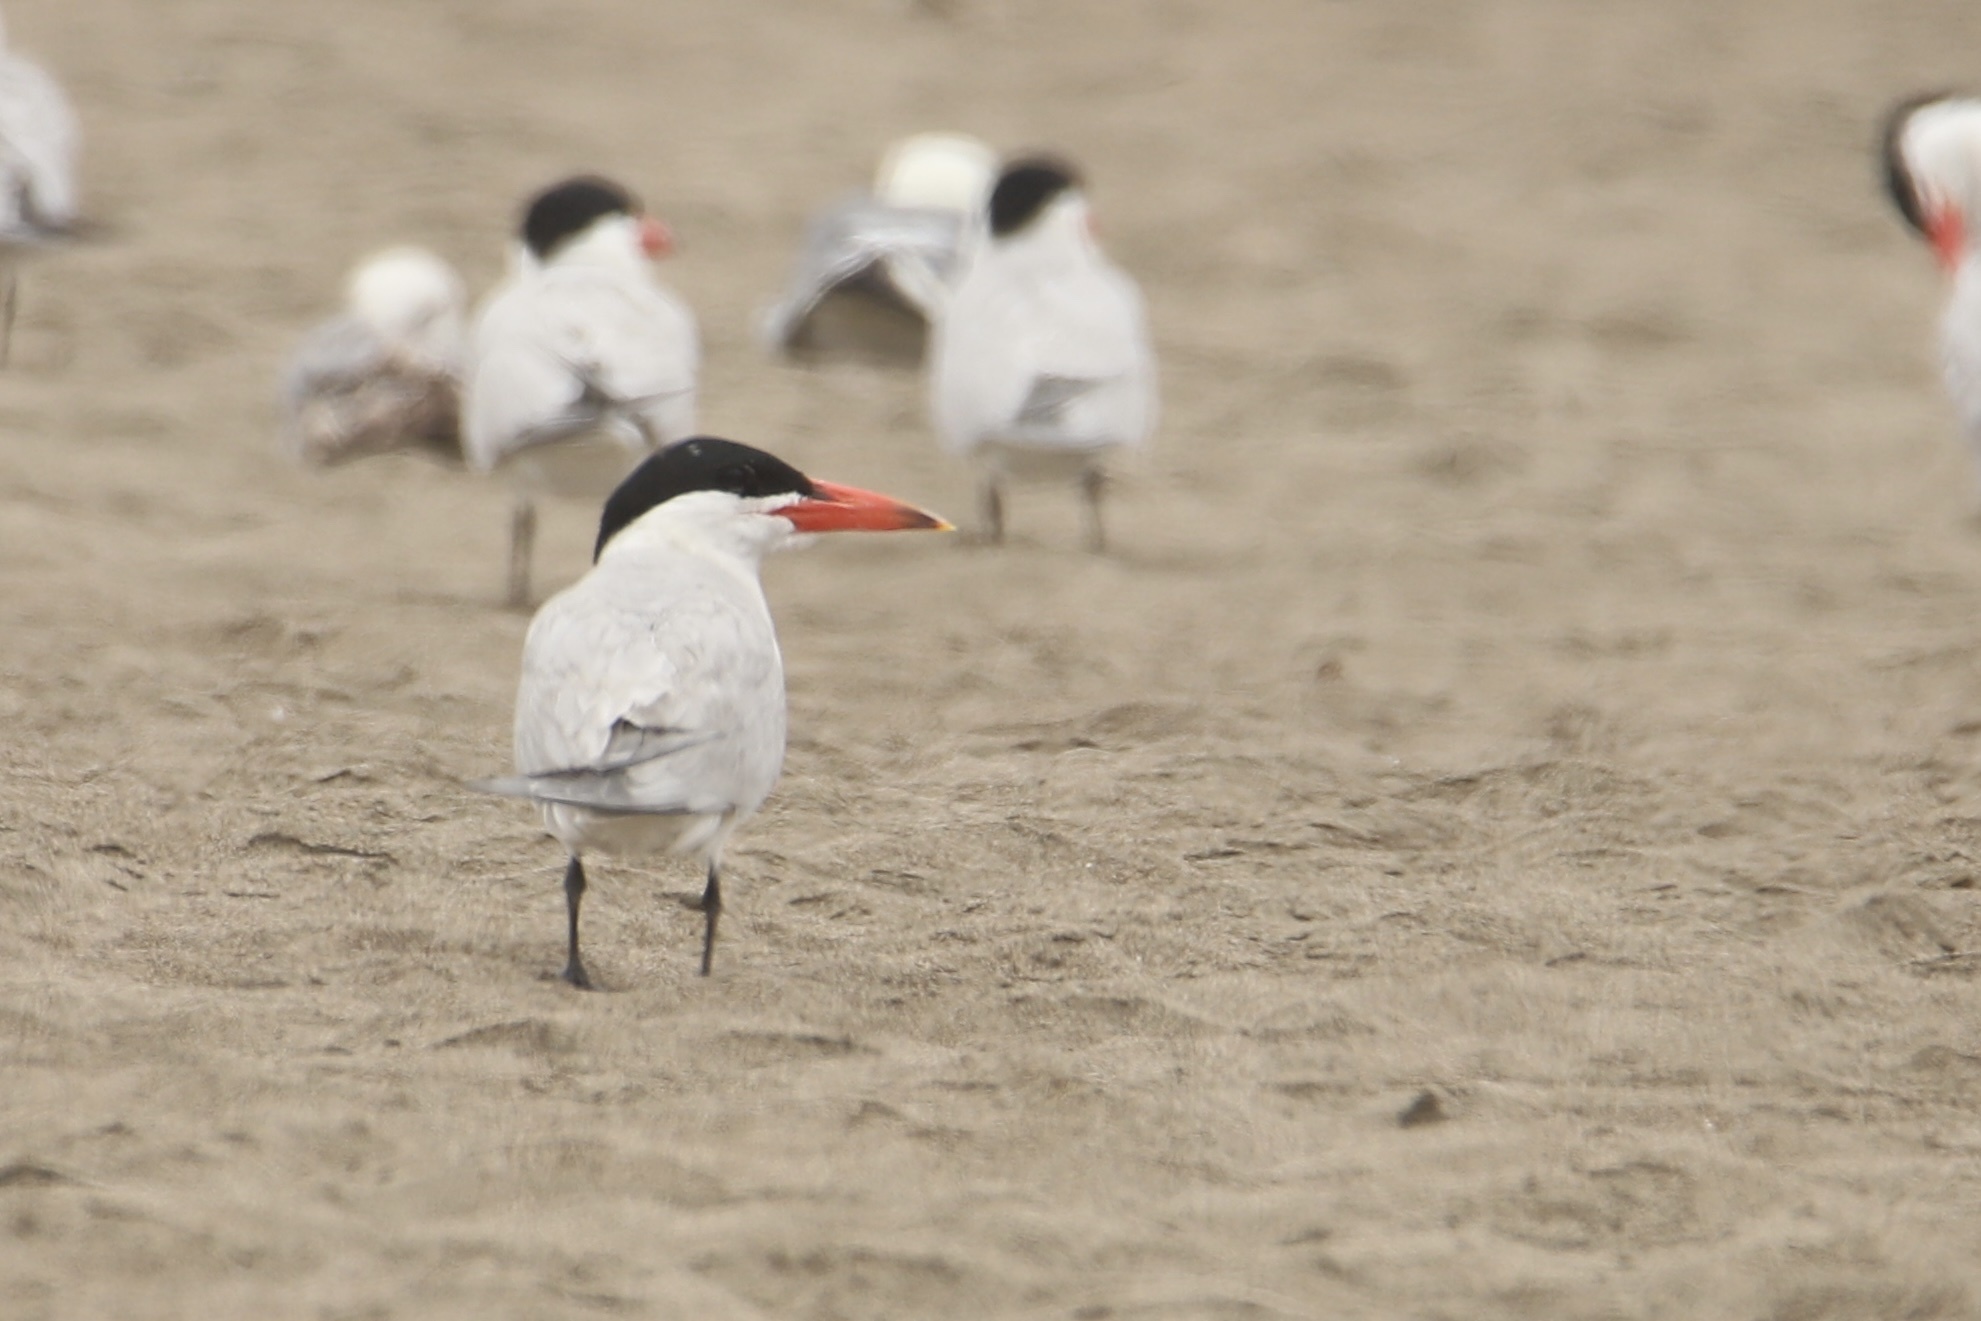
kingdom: Animalia
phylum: Chordata
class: Aves
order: Charadriiformes
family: Laridae
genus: Hydroprogne
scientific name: Hydroprogne caspia
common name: Caspian tern
